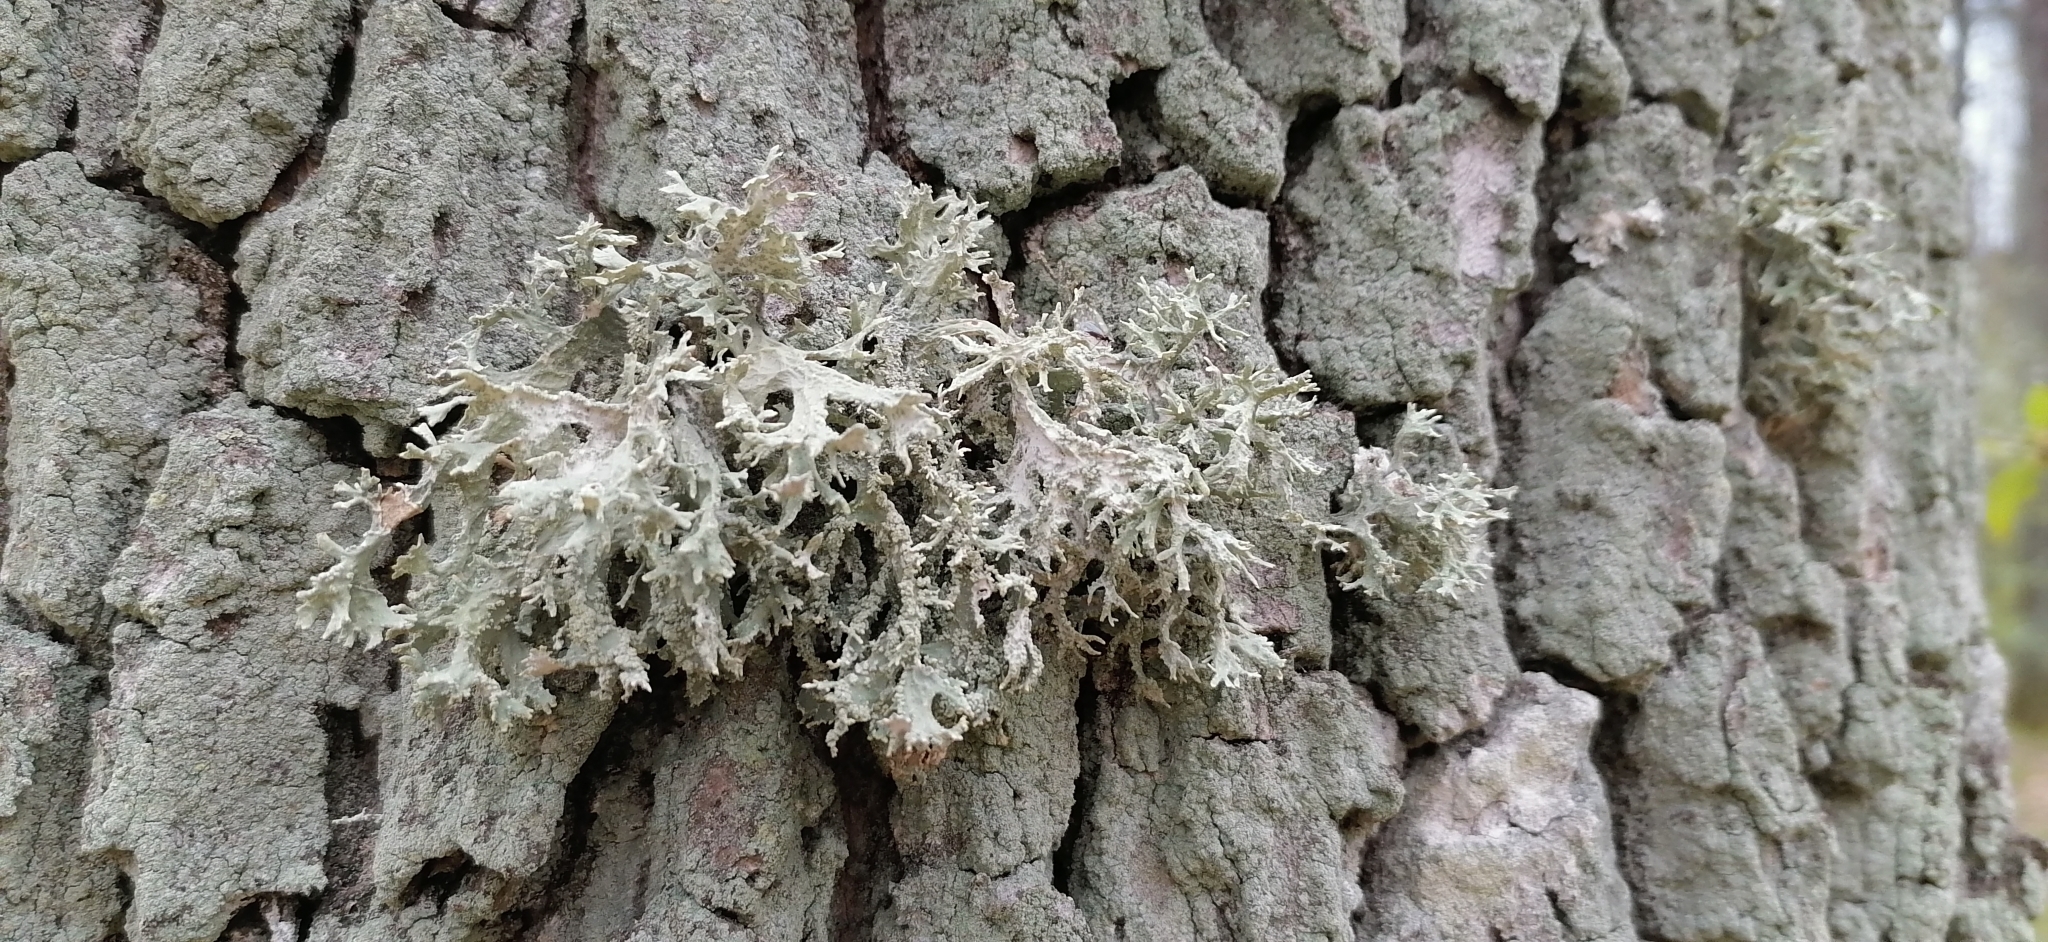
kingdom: Fungi
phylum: Ascomycota
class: Lecanoromycetes
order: Lecanorales
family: Parmeliaceae
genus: Evernia
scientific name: Evernia prunastri
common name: Oak moss
